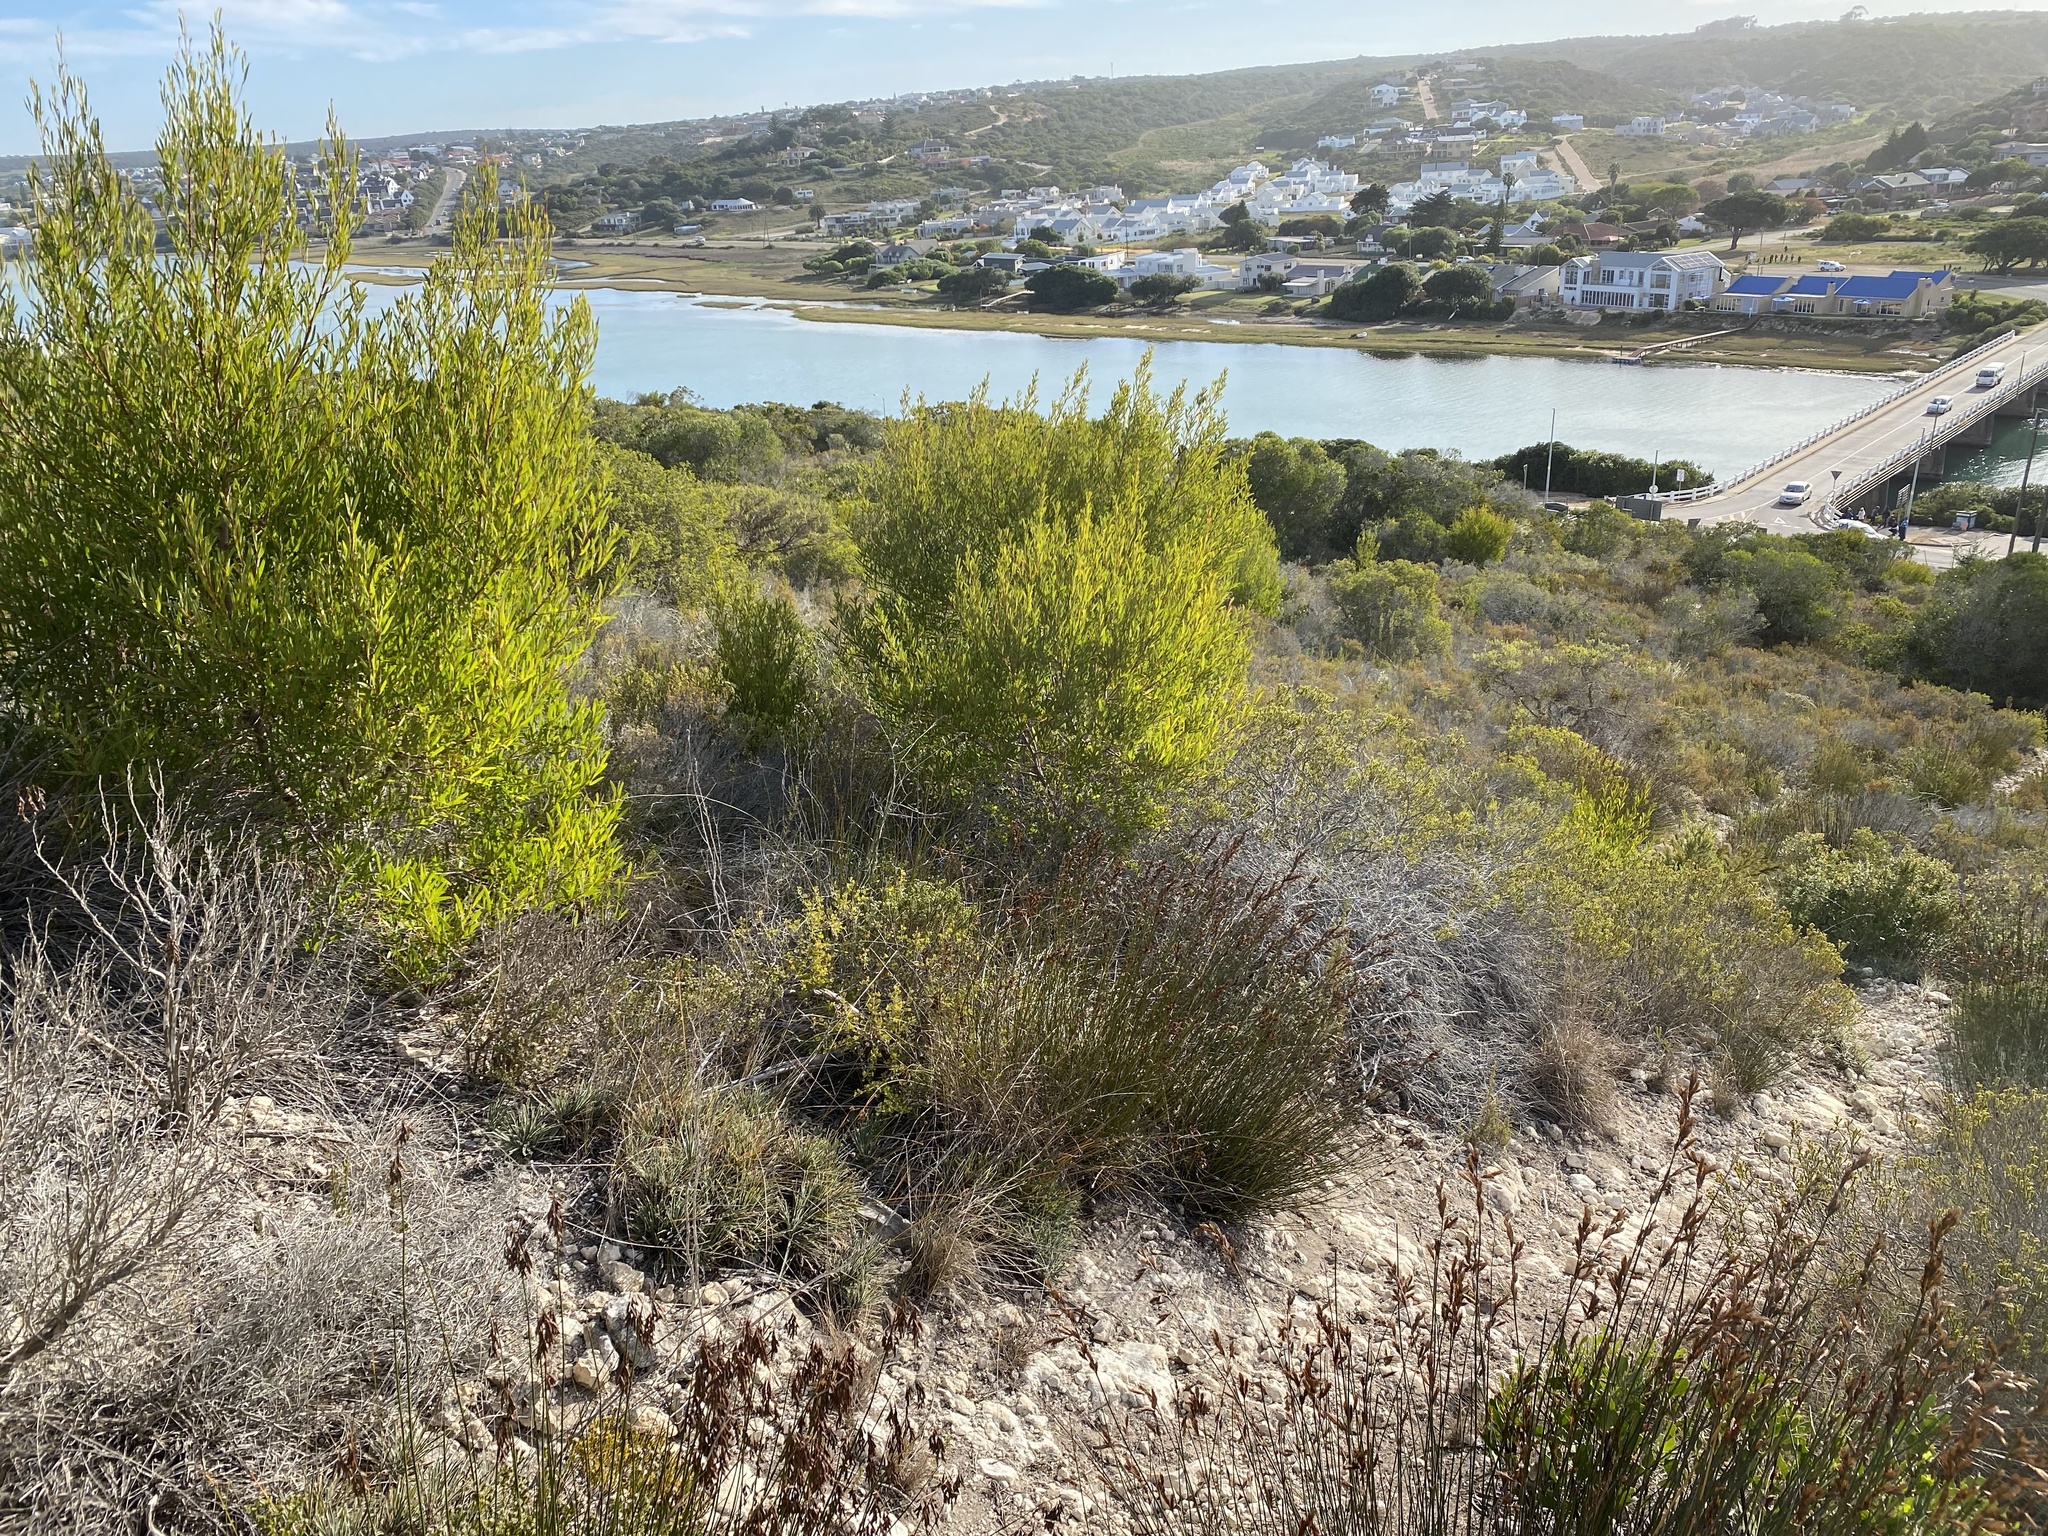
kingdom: Plantae
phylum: Tracheophyta
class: Magnoliopsida
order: Fabales
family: Fabaceae
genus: Acacia
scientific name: Acacia cyclops
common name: Coastal wattle
